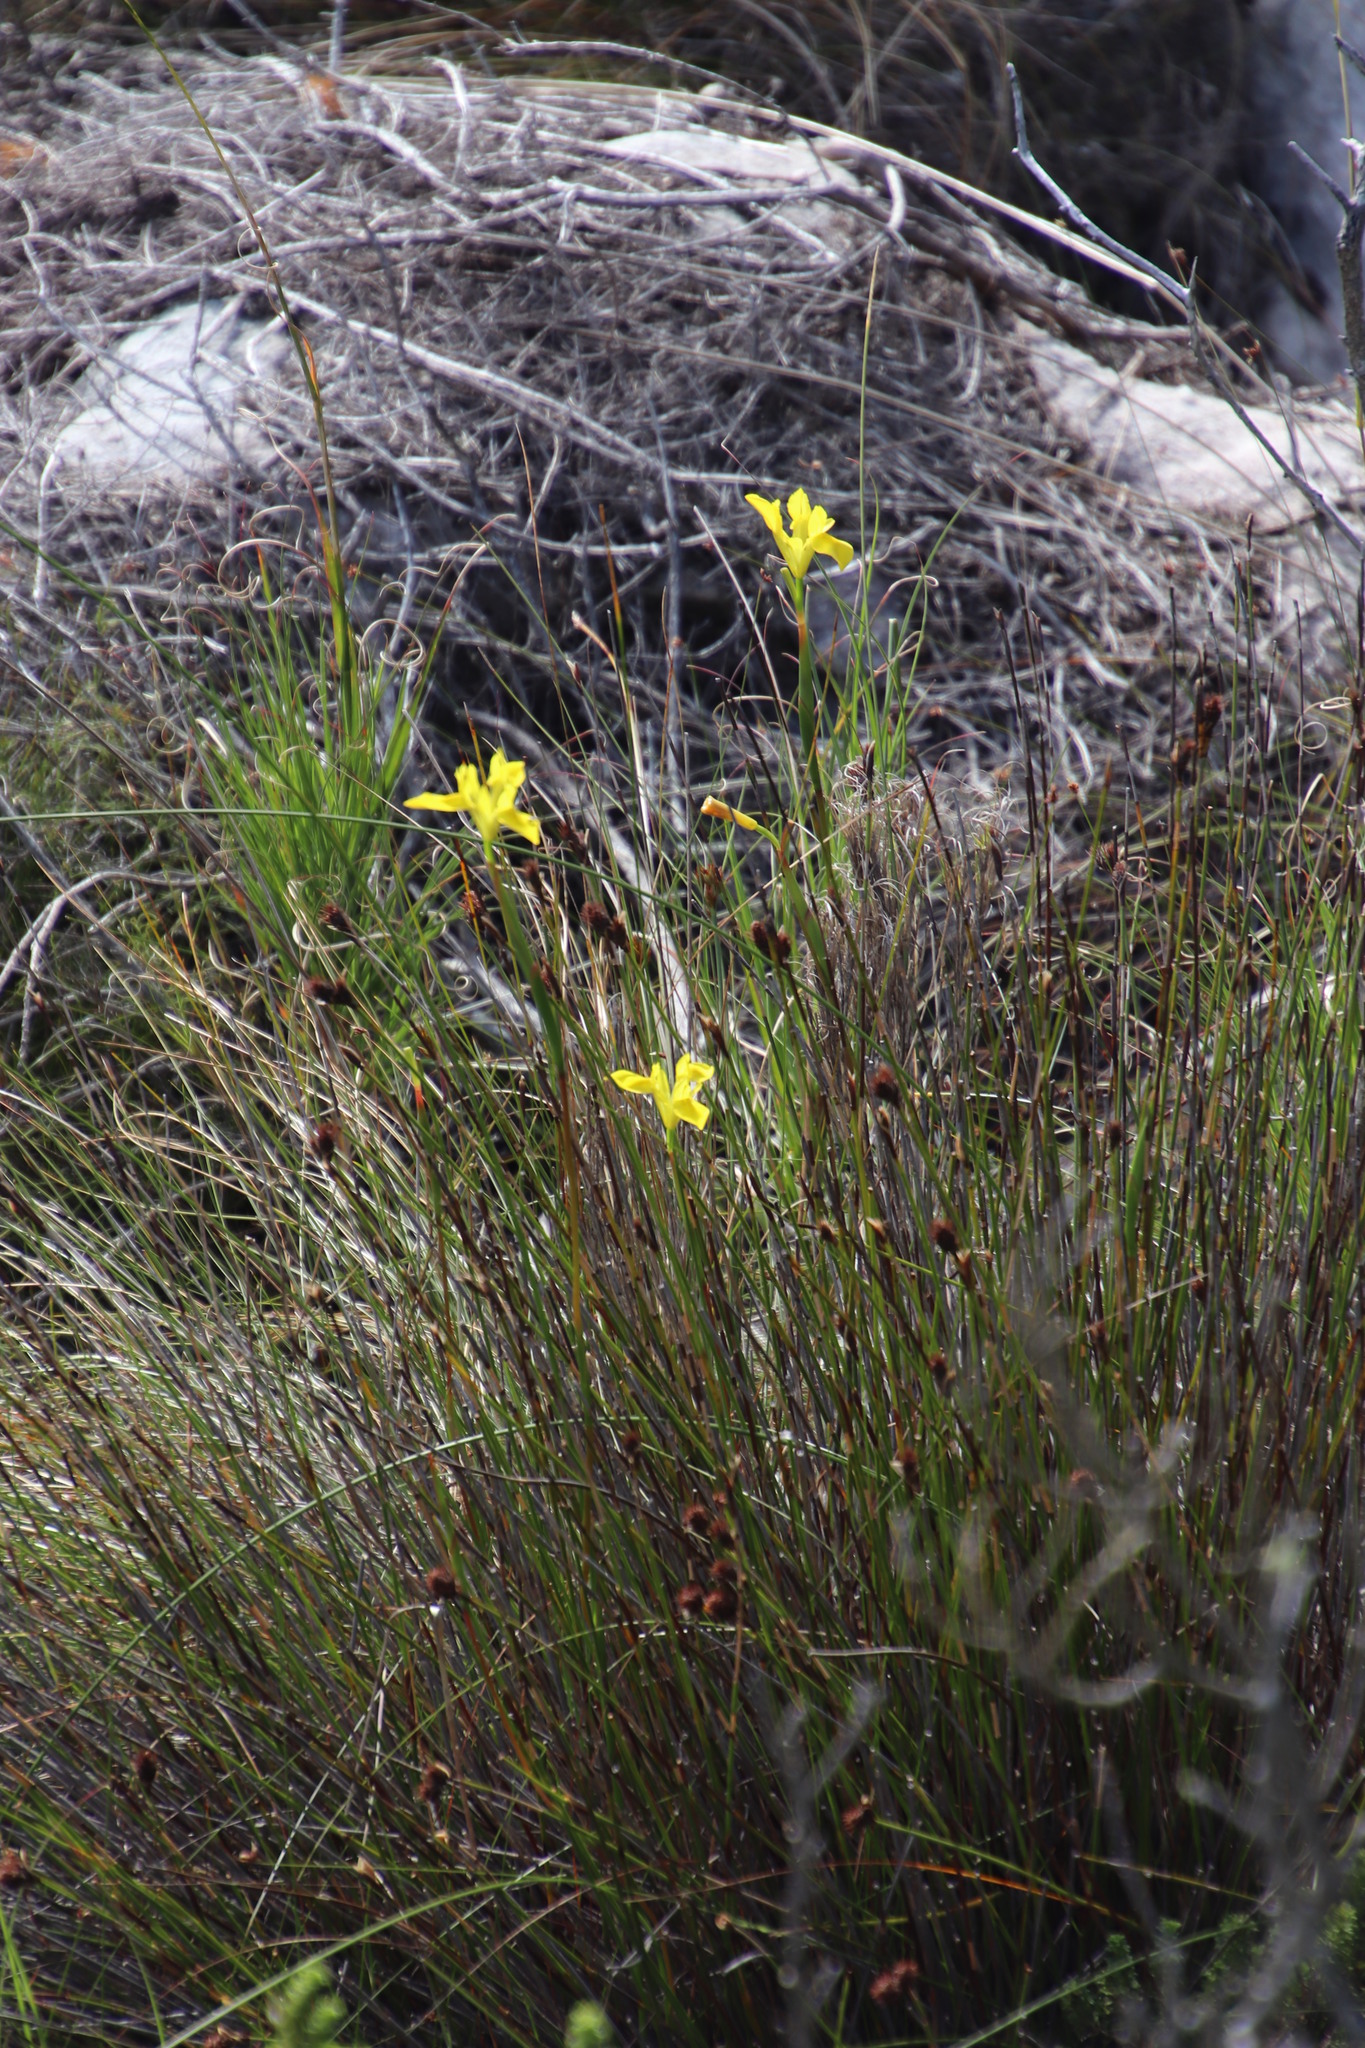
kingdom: Plantae
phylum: Tracheophyta
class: Liliopsida
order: Asparagales
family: Iridaceae
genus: Moraea
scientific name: Moraea neglecta
